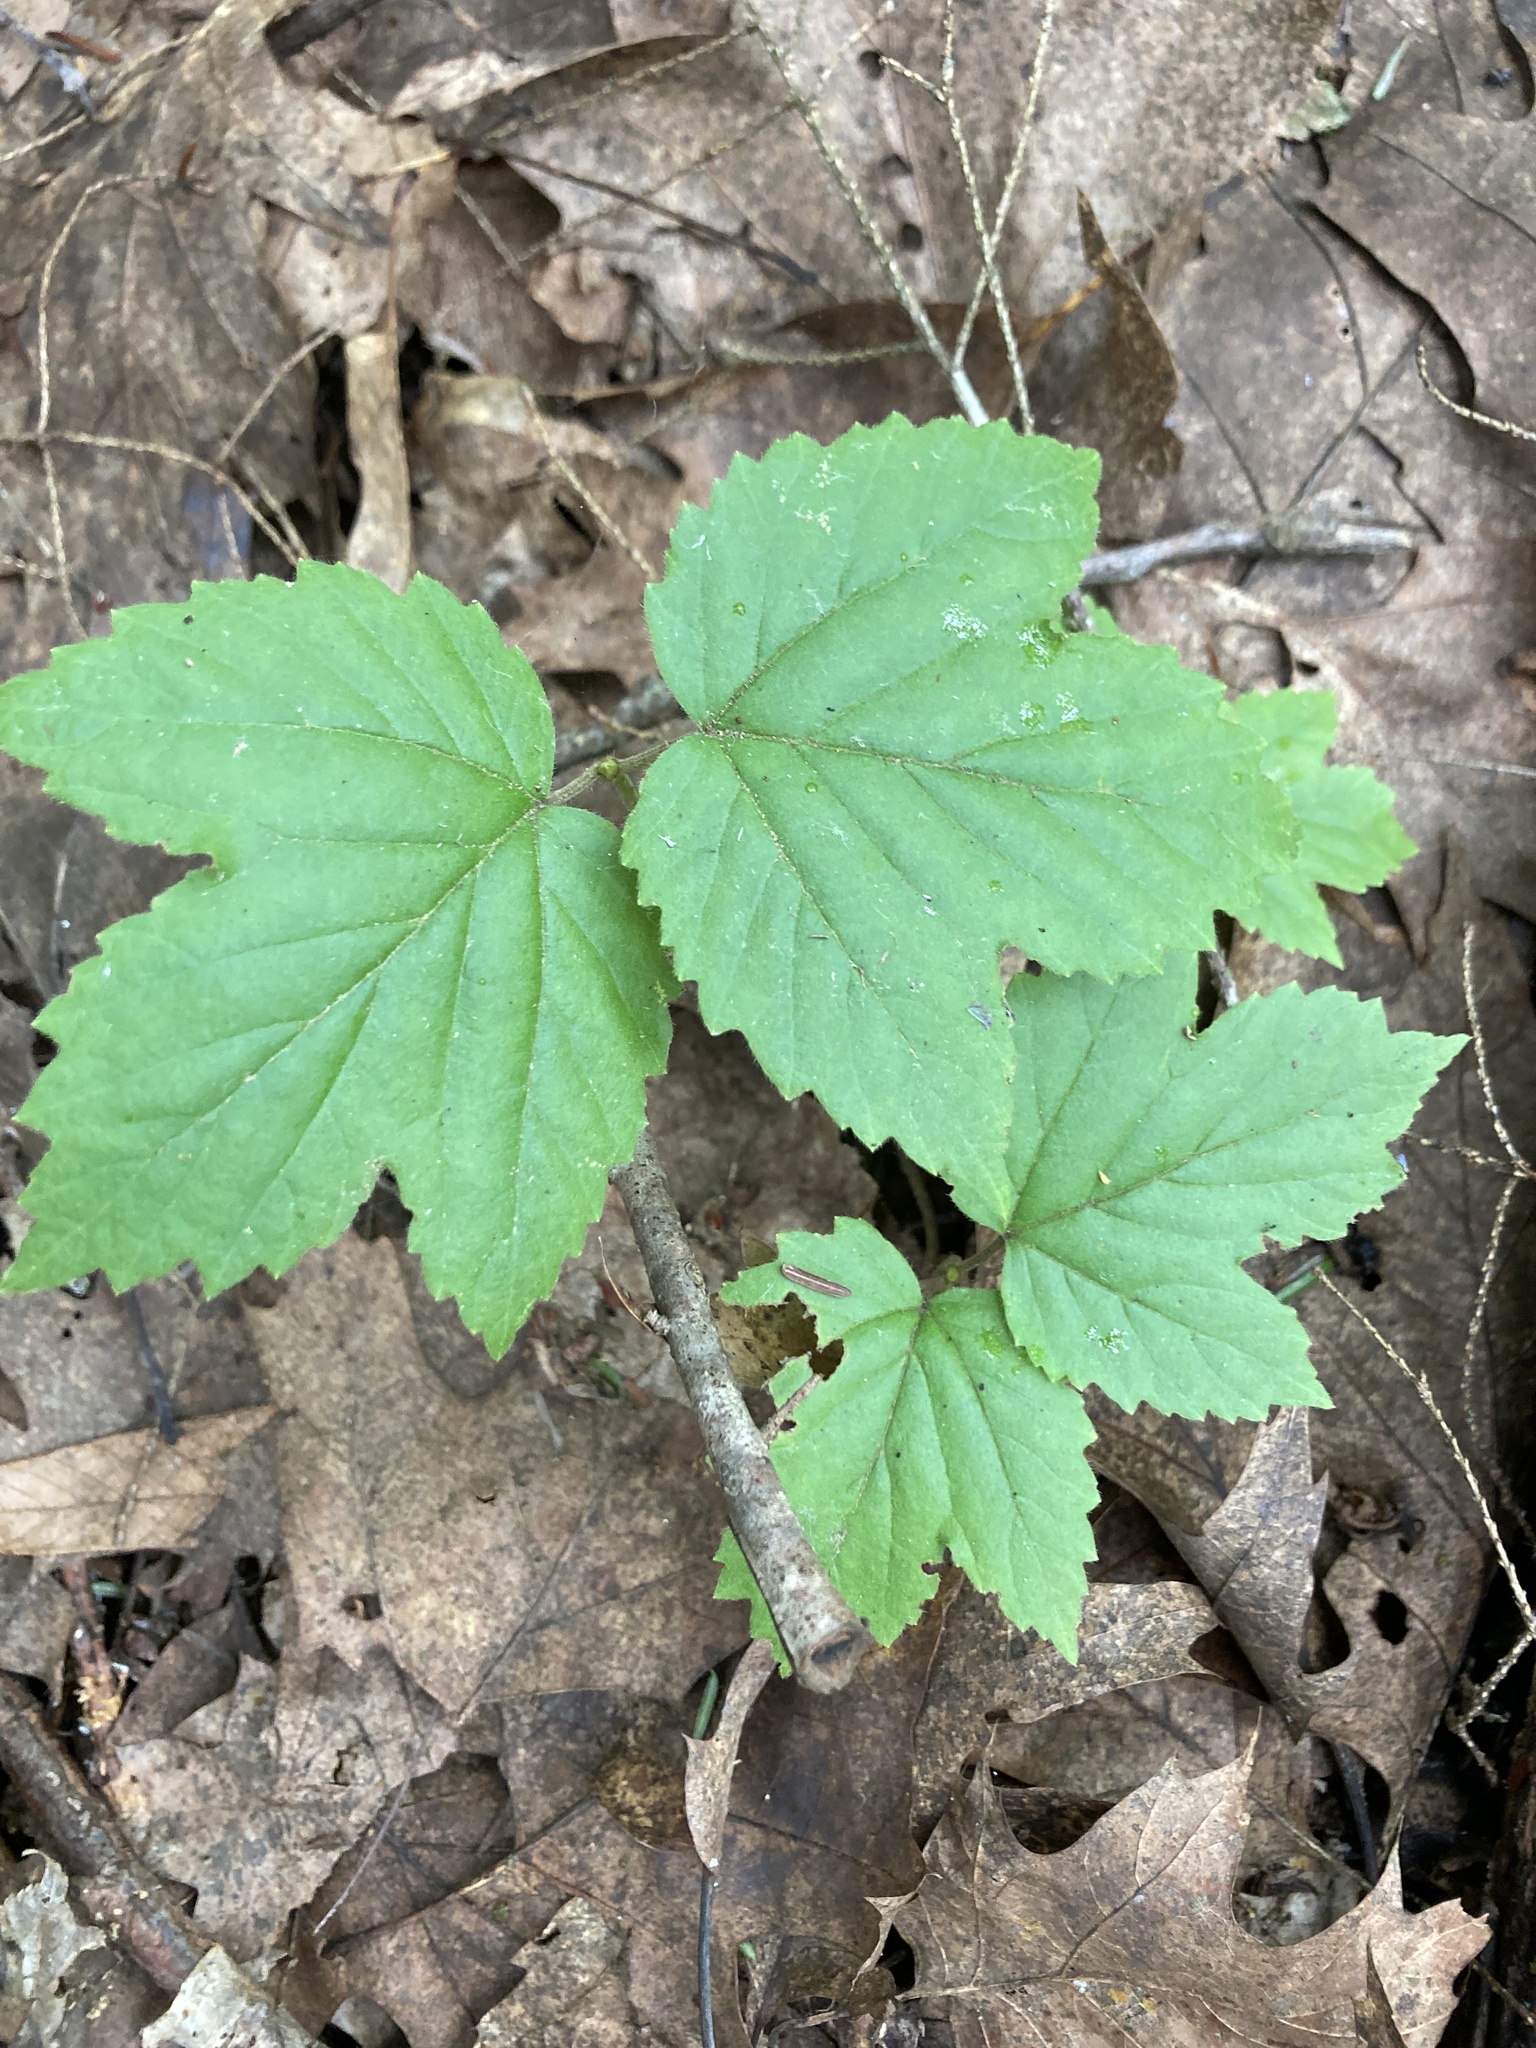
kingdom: Plantae
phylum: Tracheophyta
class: Magnoliopsida
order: Dipsacales
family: Viburnaceae
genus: Viburnum
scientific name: Viburnum acerifolium
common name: Dockmackie
